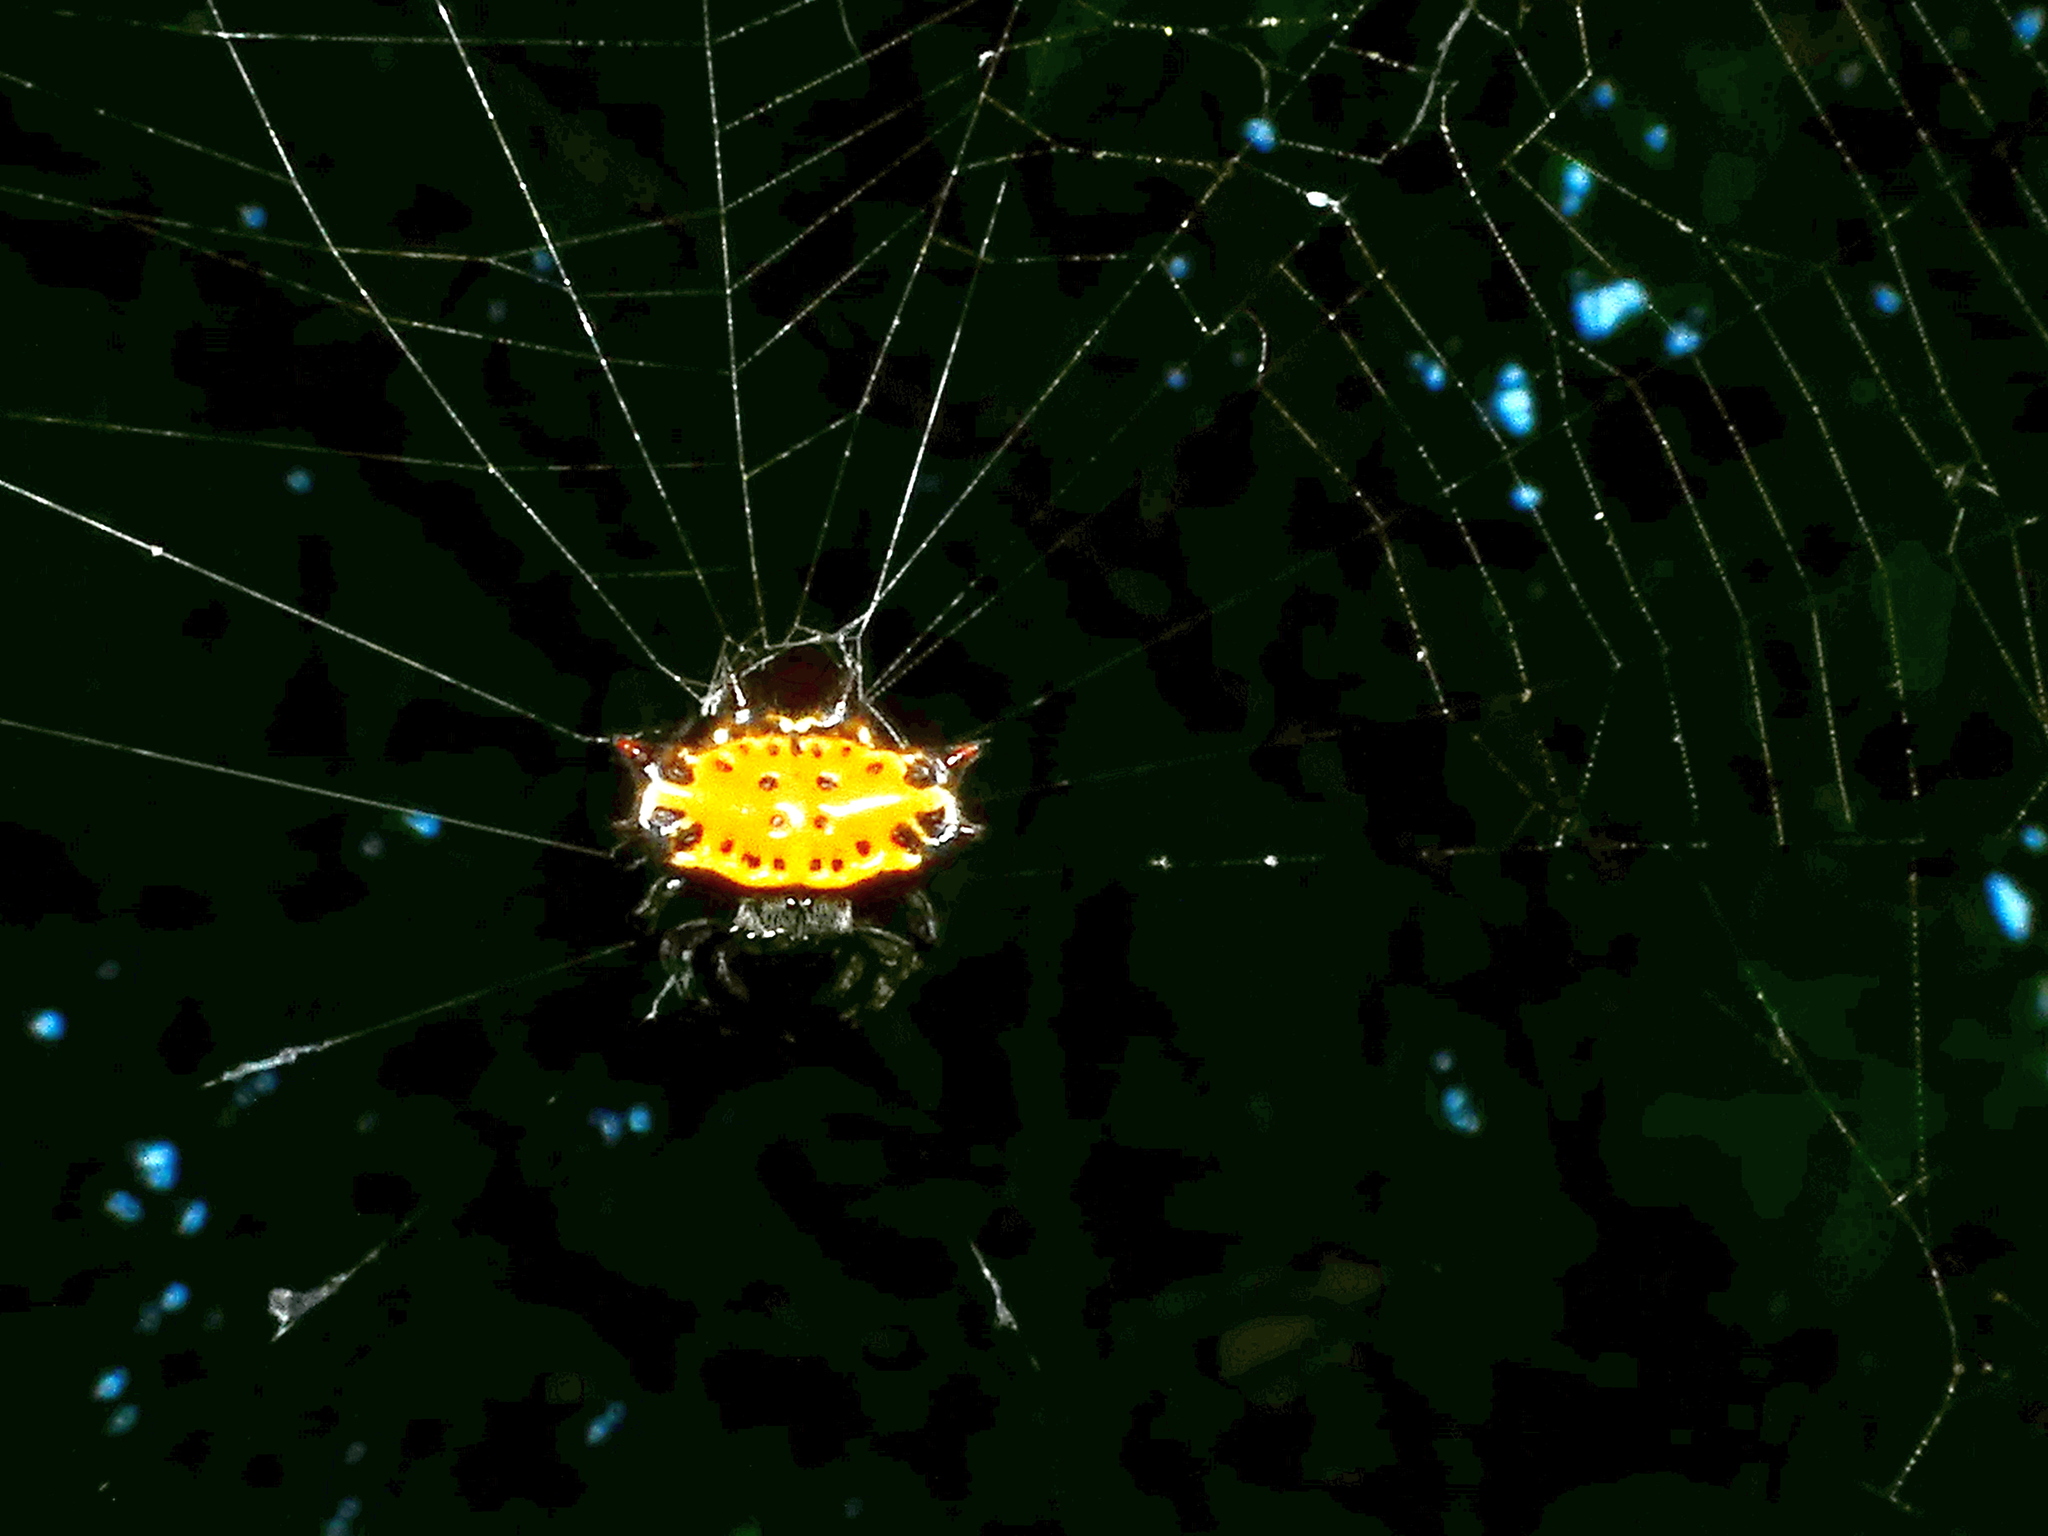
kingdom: Animalia
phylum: Arthropoda
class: Arachnida
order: Araneae
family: Araneidae
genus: Gasteracantha
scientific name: Gasteracantha cancriformis
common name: Orb weavers
